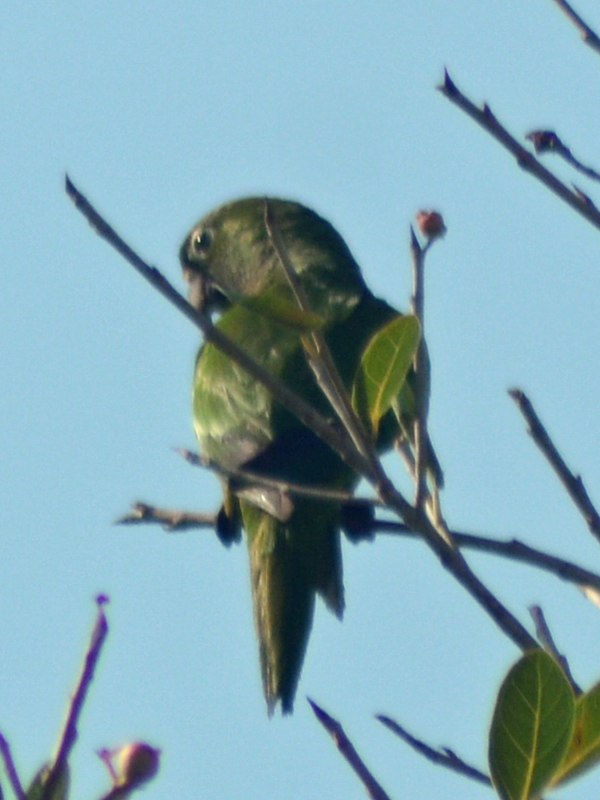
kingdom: Animalia
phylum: Chordata
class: Aves
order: Psittaciformes
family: Psittacidae
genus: Aratinga
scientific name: Aratinga nana
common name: Olive-throated parakeet
